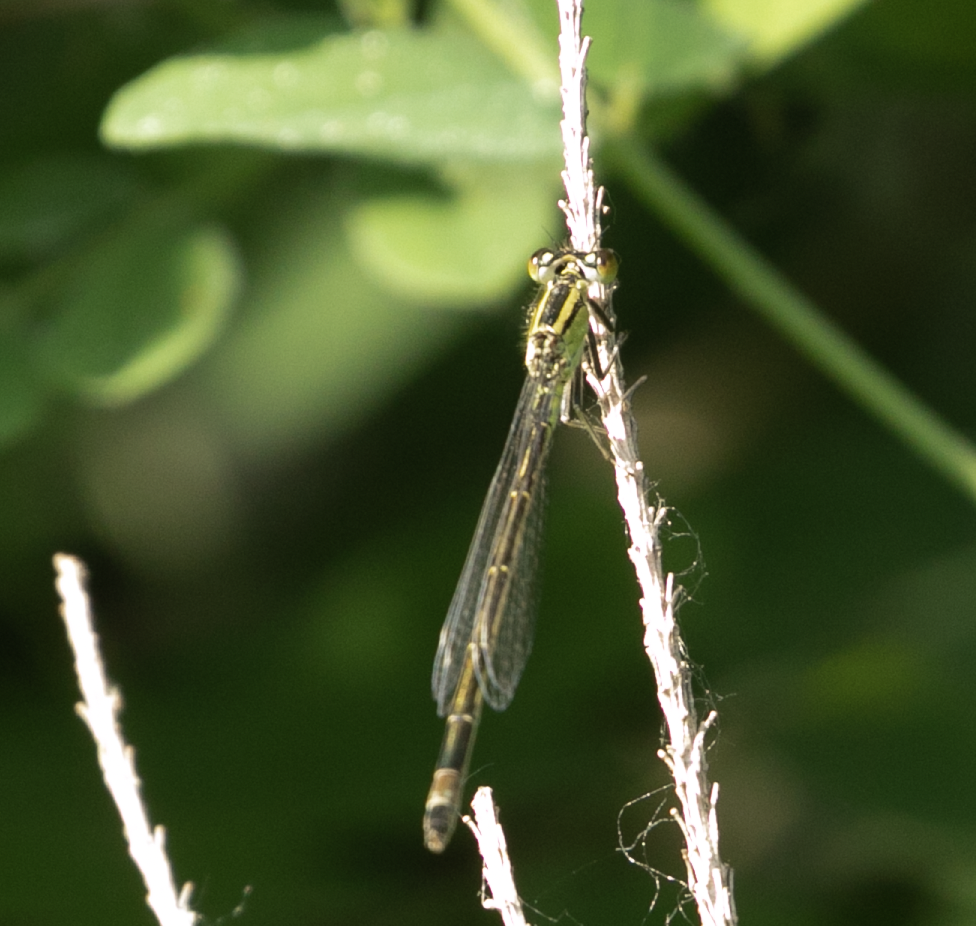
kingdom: Animalia
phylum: Arthropoda
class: Insecta
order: Odonata
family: Coenagrionidae
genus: Ischnura
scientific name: Ischnura elegans
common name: Blue-tailed damselfly
